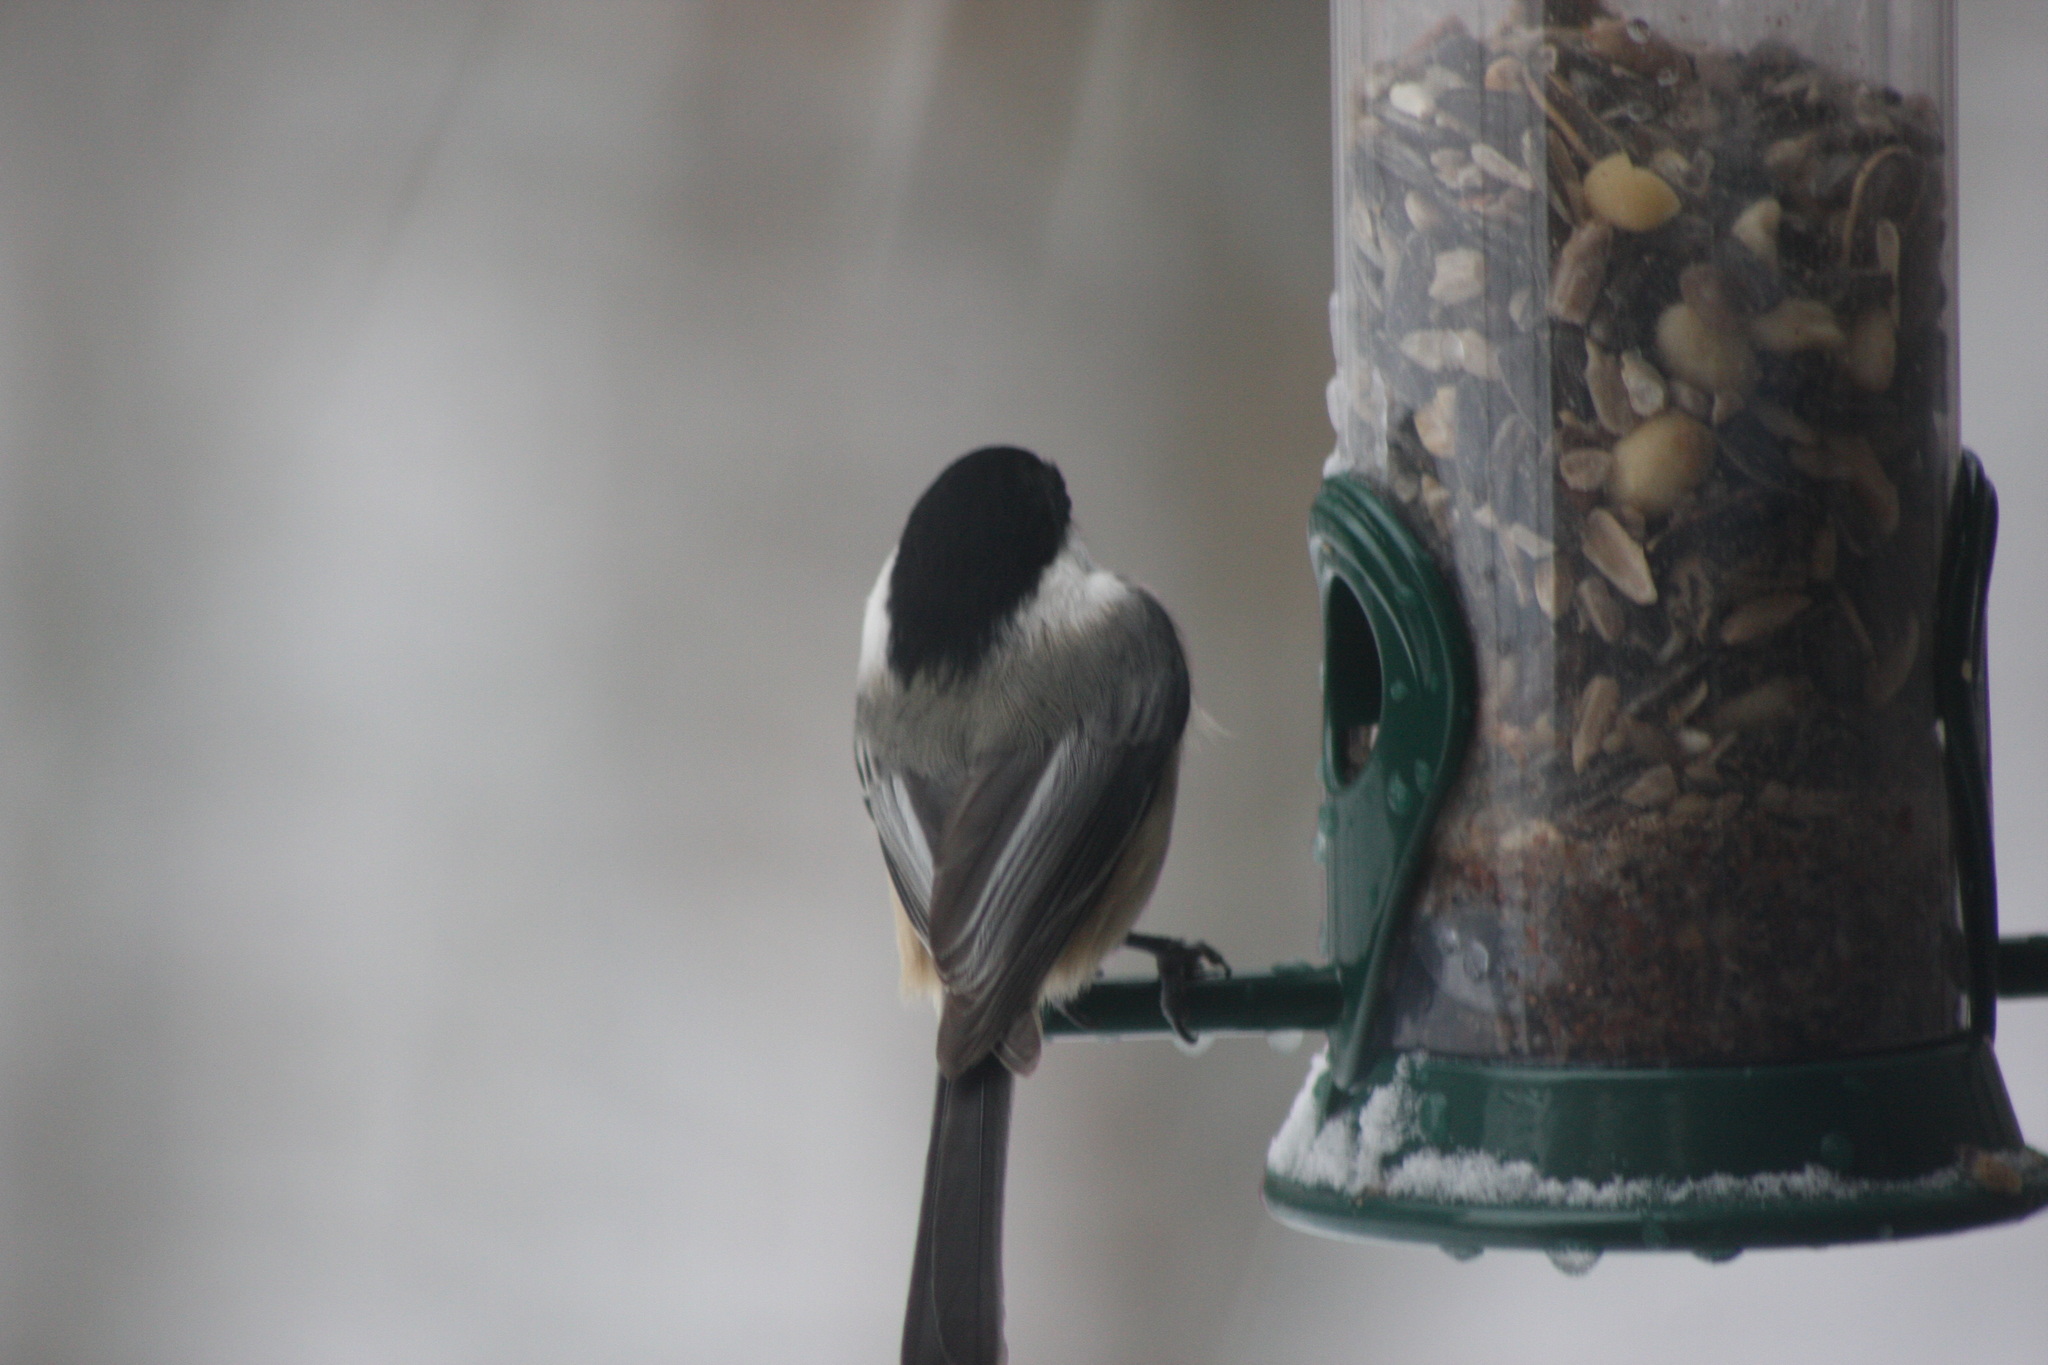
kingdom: Animalia
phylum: Chordata
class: Aves
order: Passeriformes
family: Paridae
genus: Poecile
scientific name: Poecile atricapillus
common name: Black-capped chickadee
